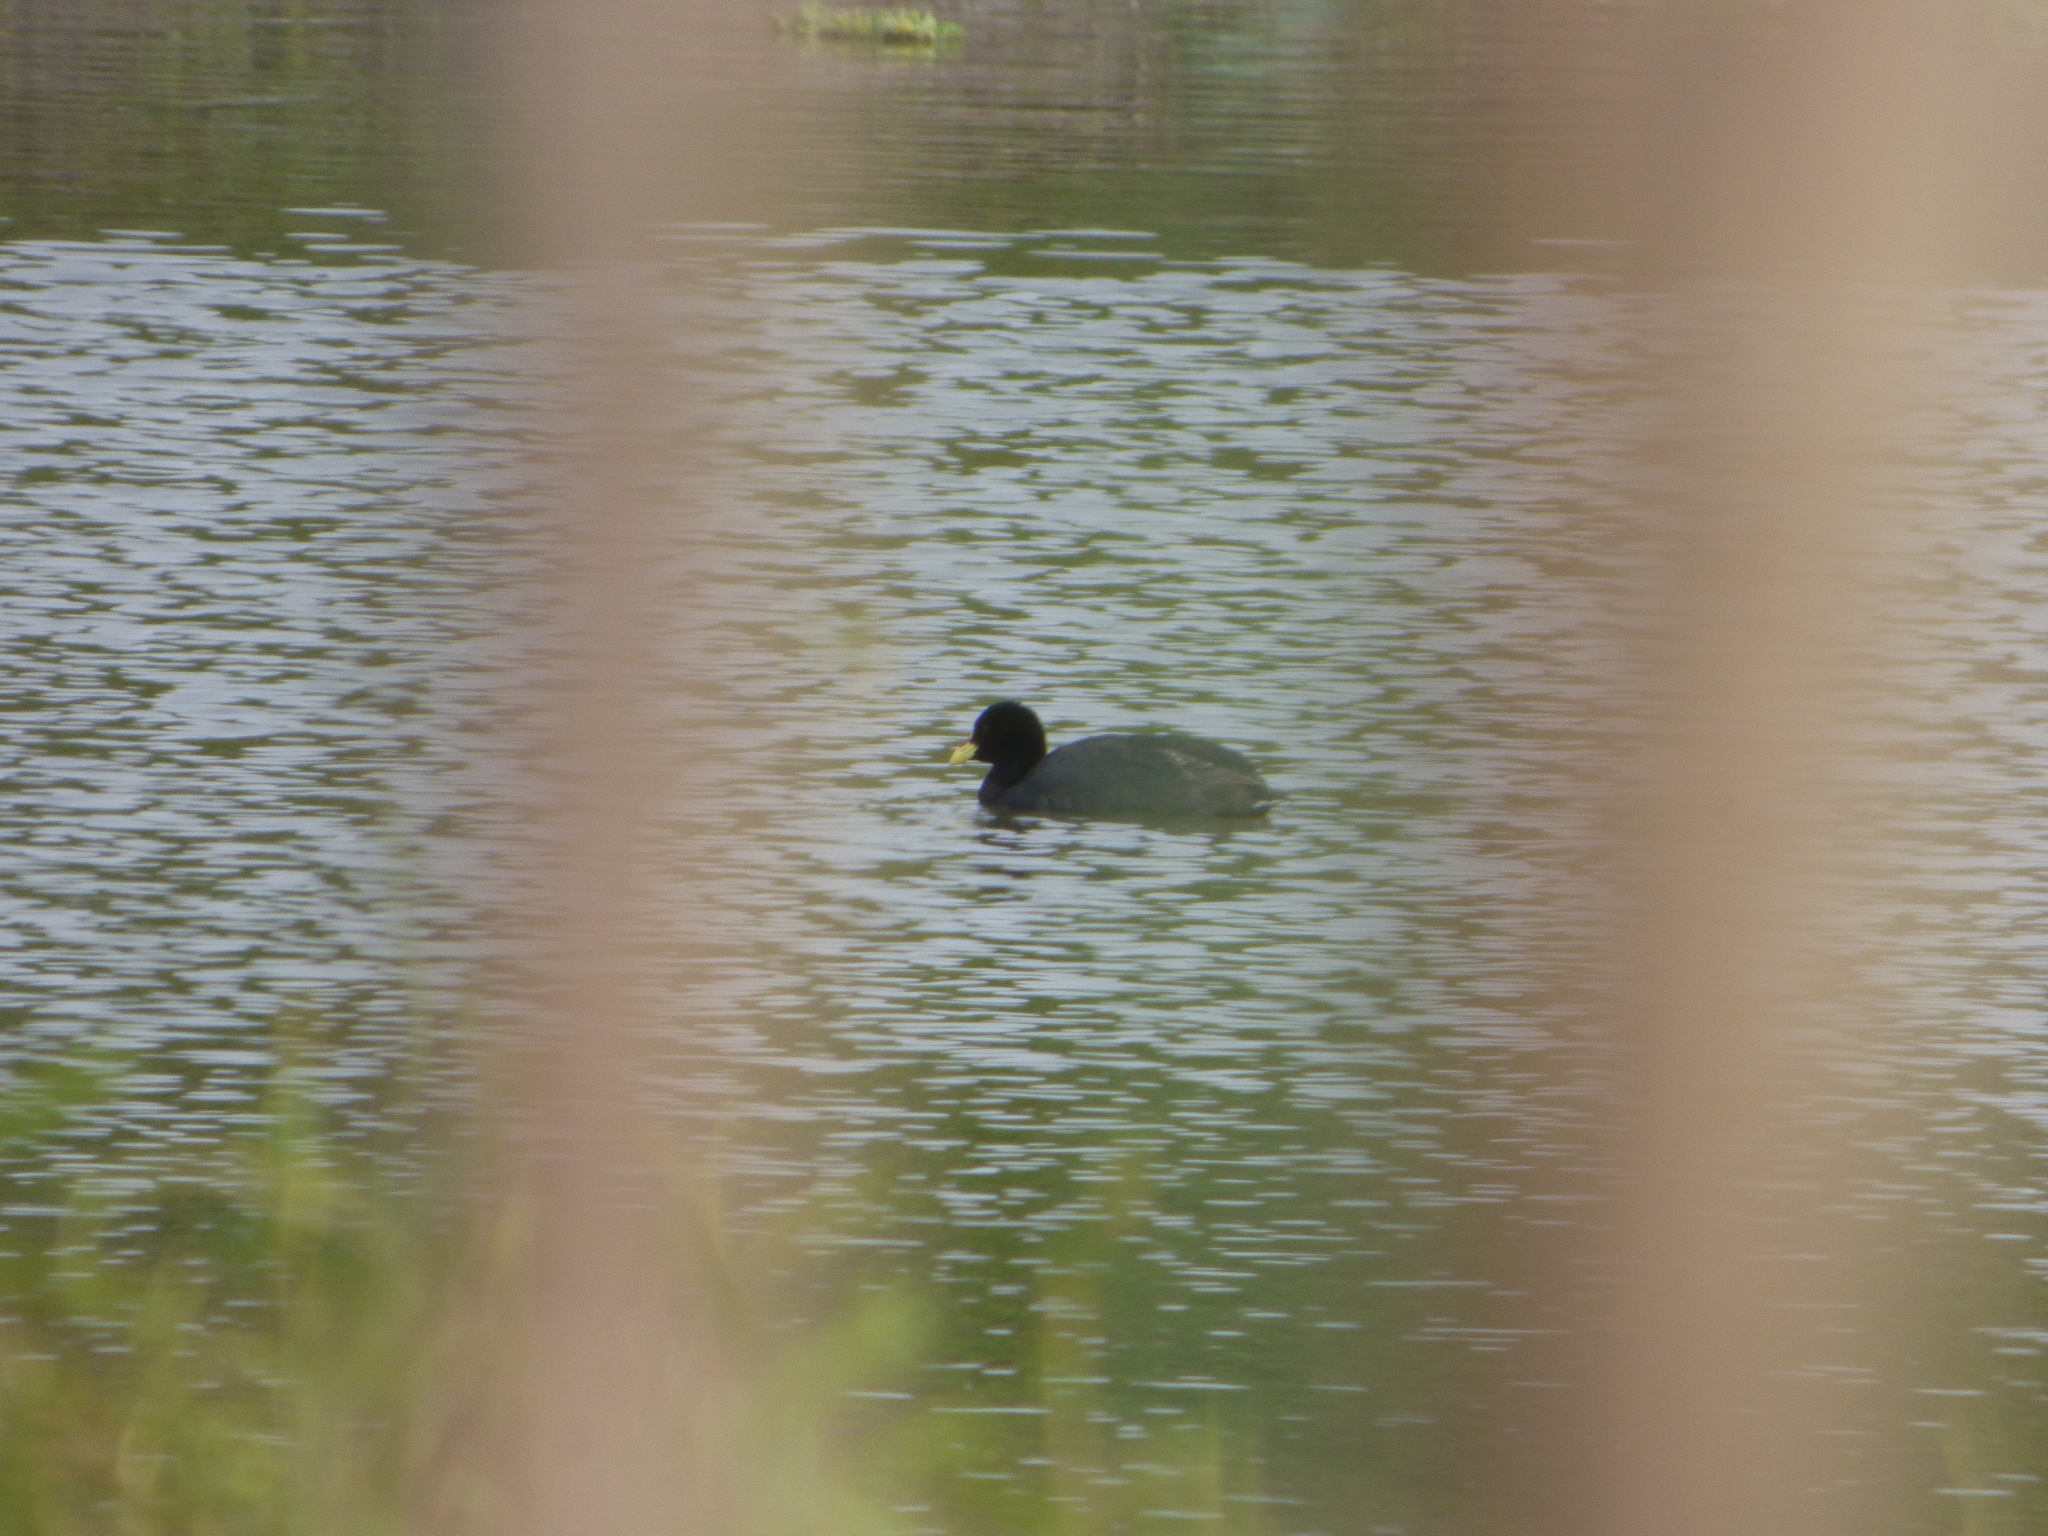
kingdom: Animalia
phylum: Chordata
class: Aves
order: Gruiformes
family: Rallidae
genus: Fulica
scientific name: Fulica armillata
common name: Red-gartered coot
